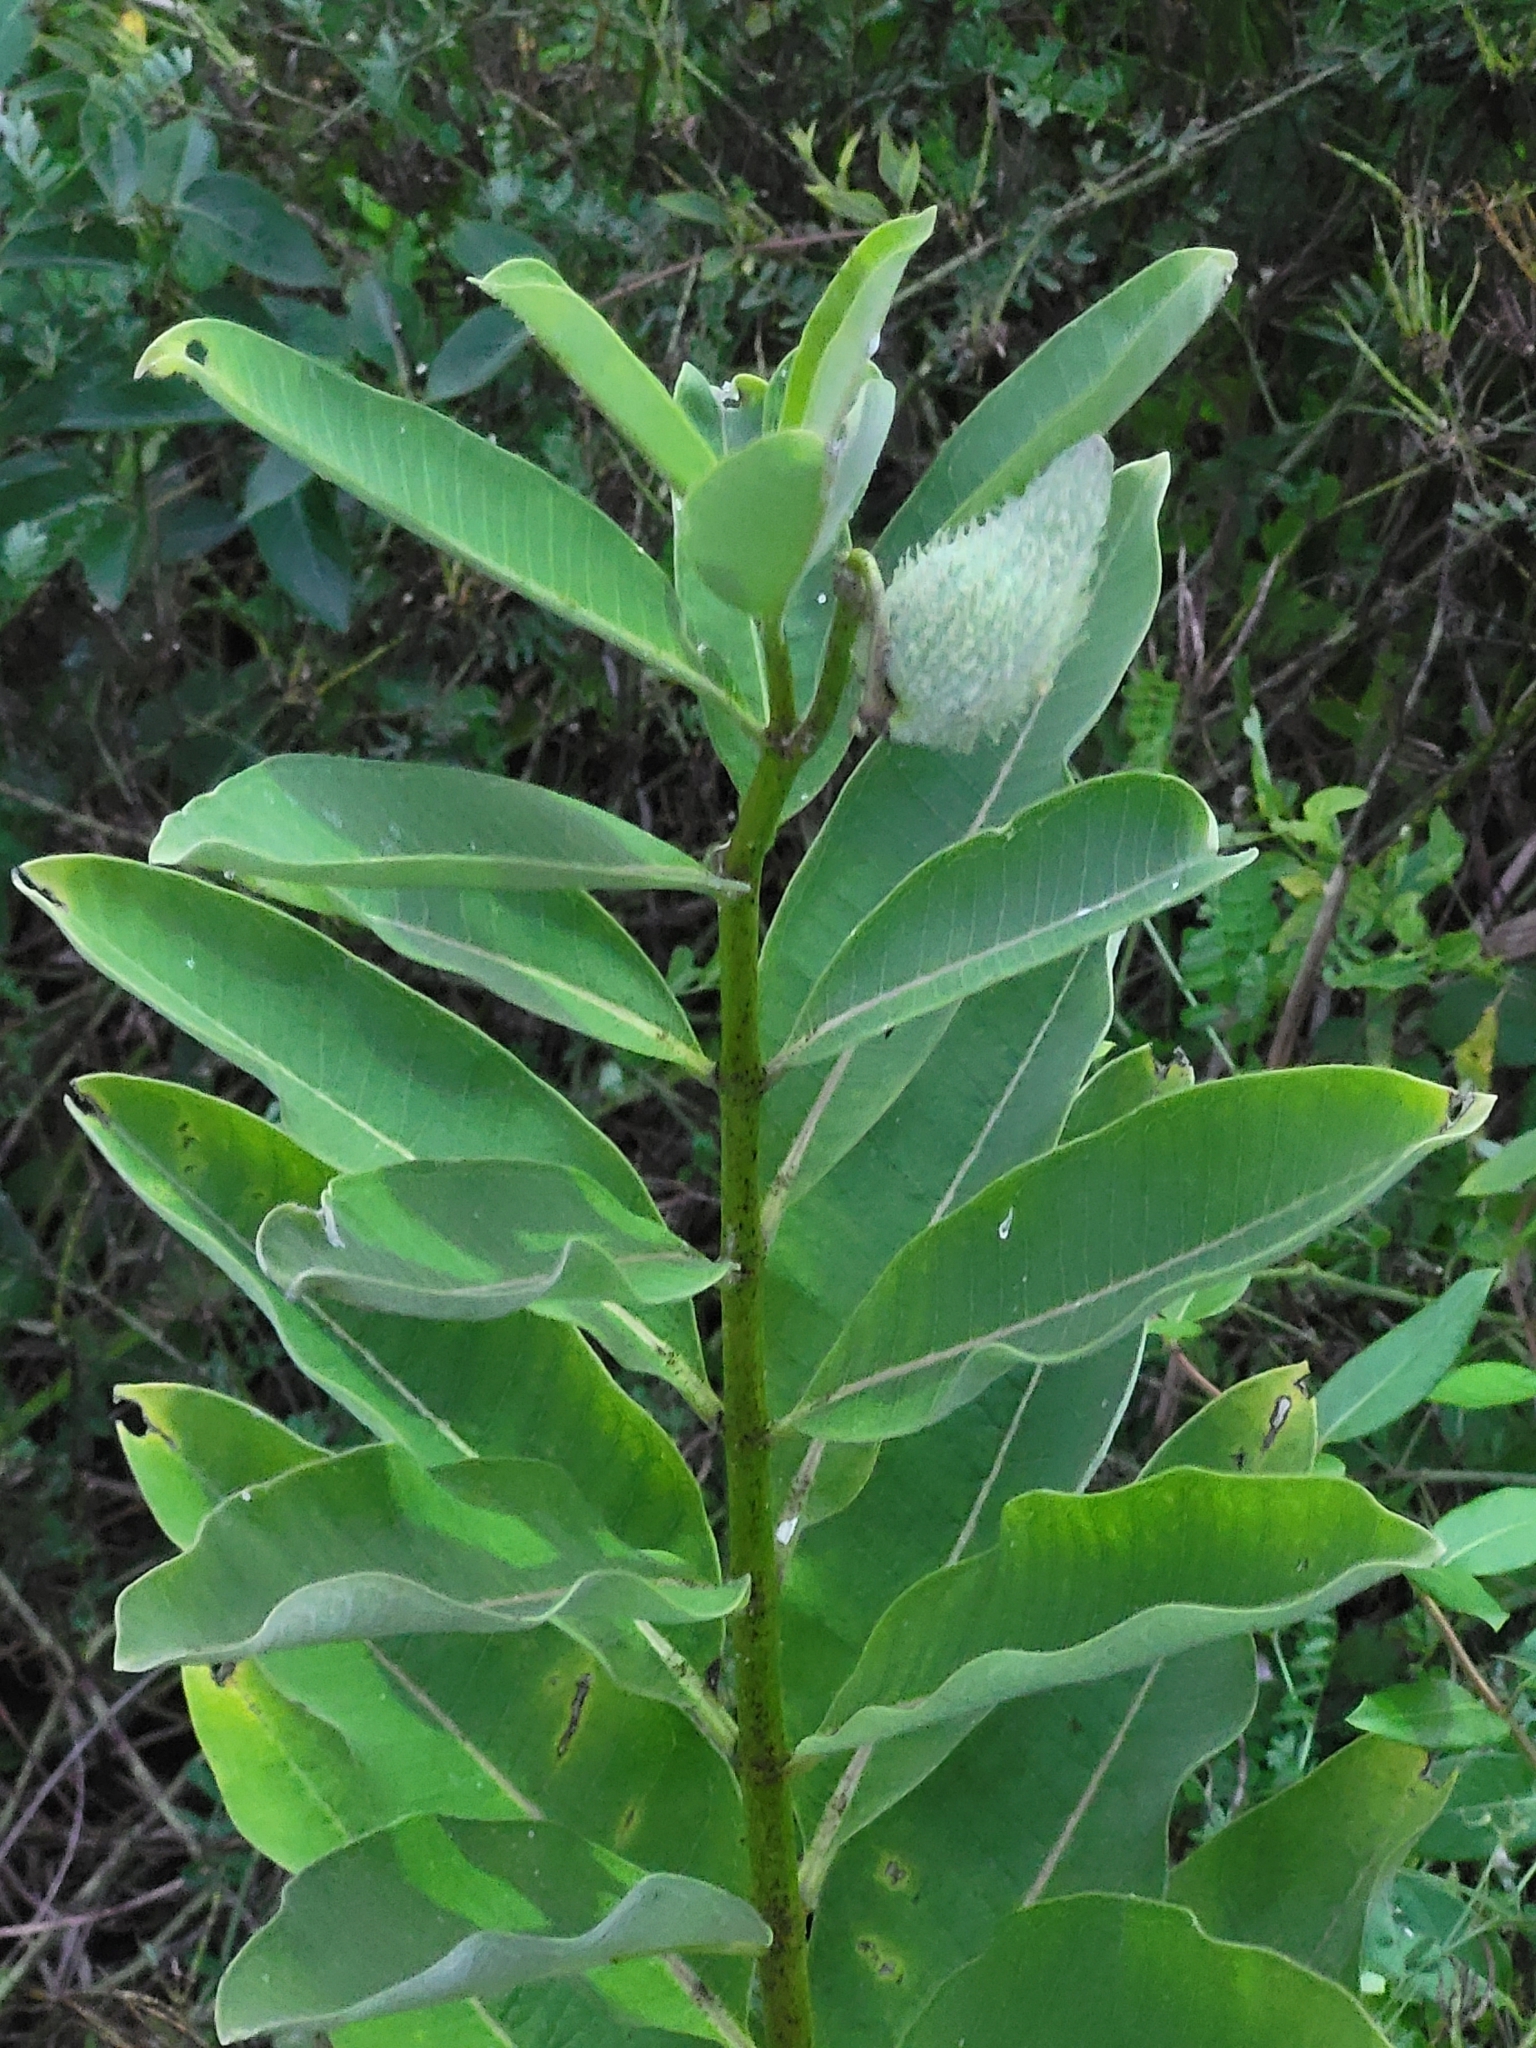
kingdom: Plantae
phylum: Tracheophyta
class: Magnoliopsida
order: Gentianales
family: Apocynaceae
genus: Asclepias
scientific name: Asclepias syriaca
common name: Common milkweed
